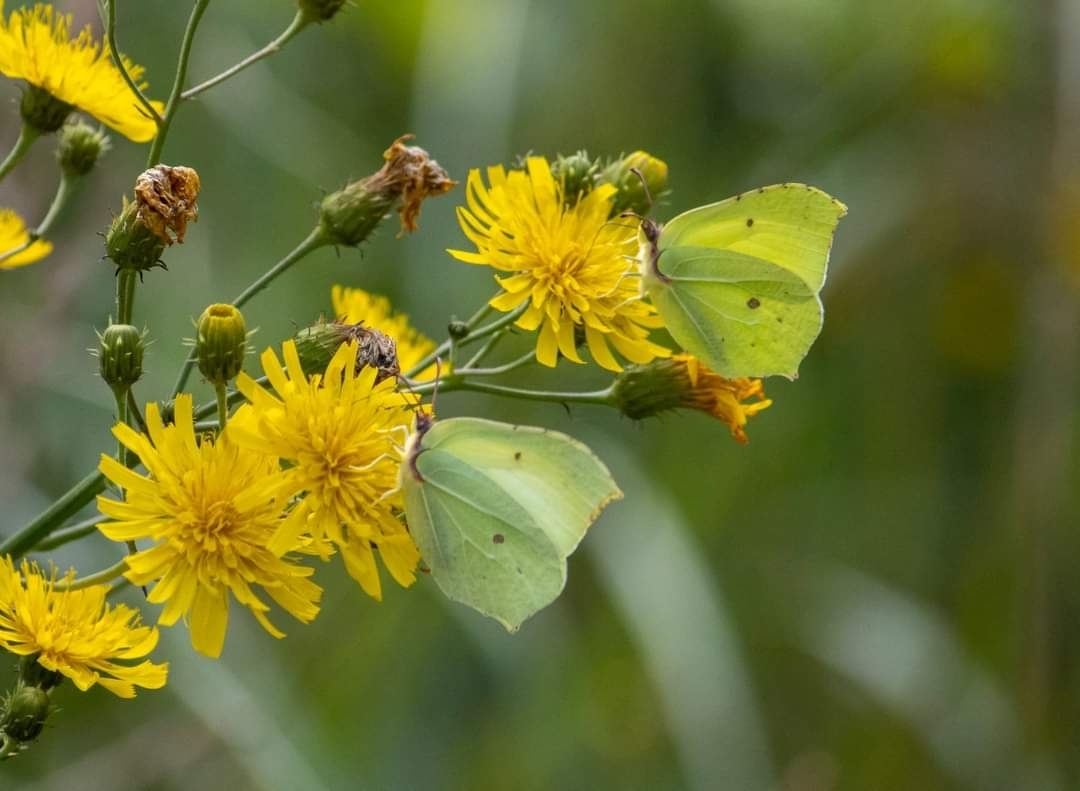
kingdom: Animalia
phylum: Arthropoda
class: Insecta
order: Lepidoptera
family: Pieridae
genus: Gonepteryx
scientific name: Gonepteryx rhamni
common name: Brimstone
